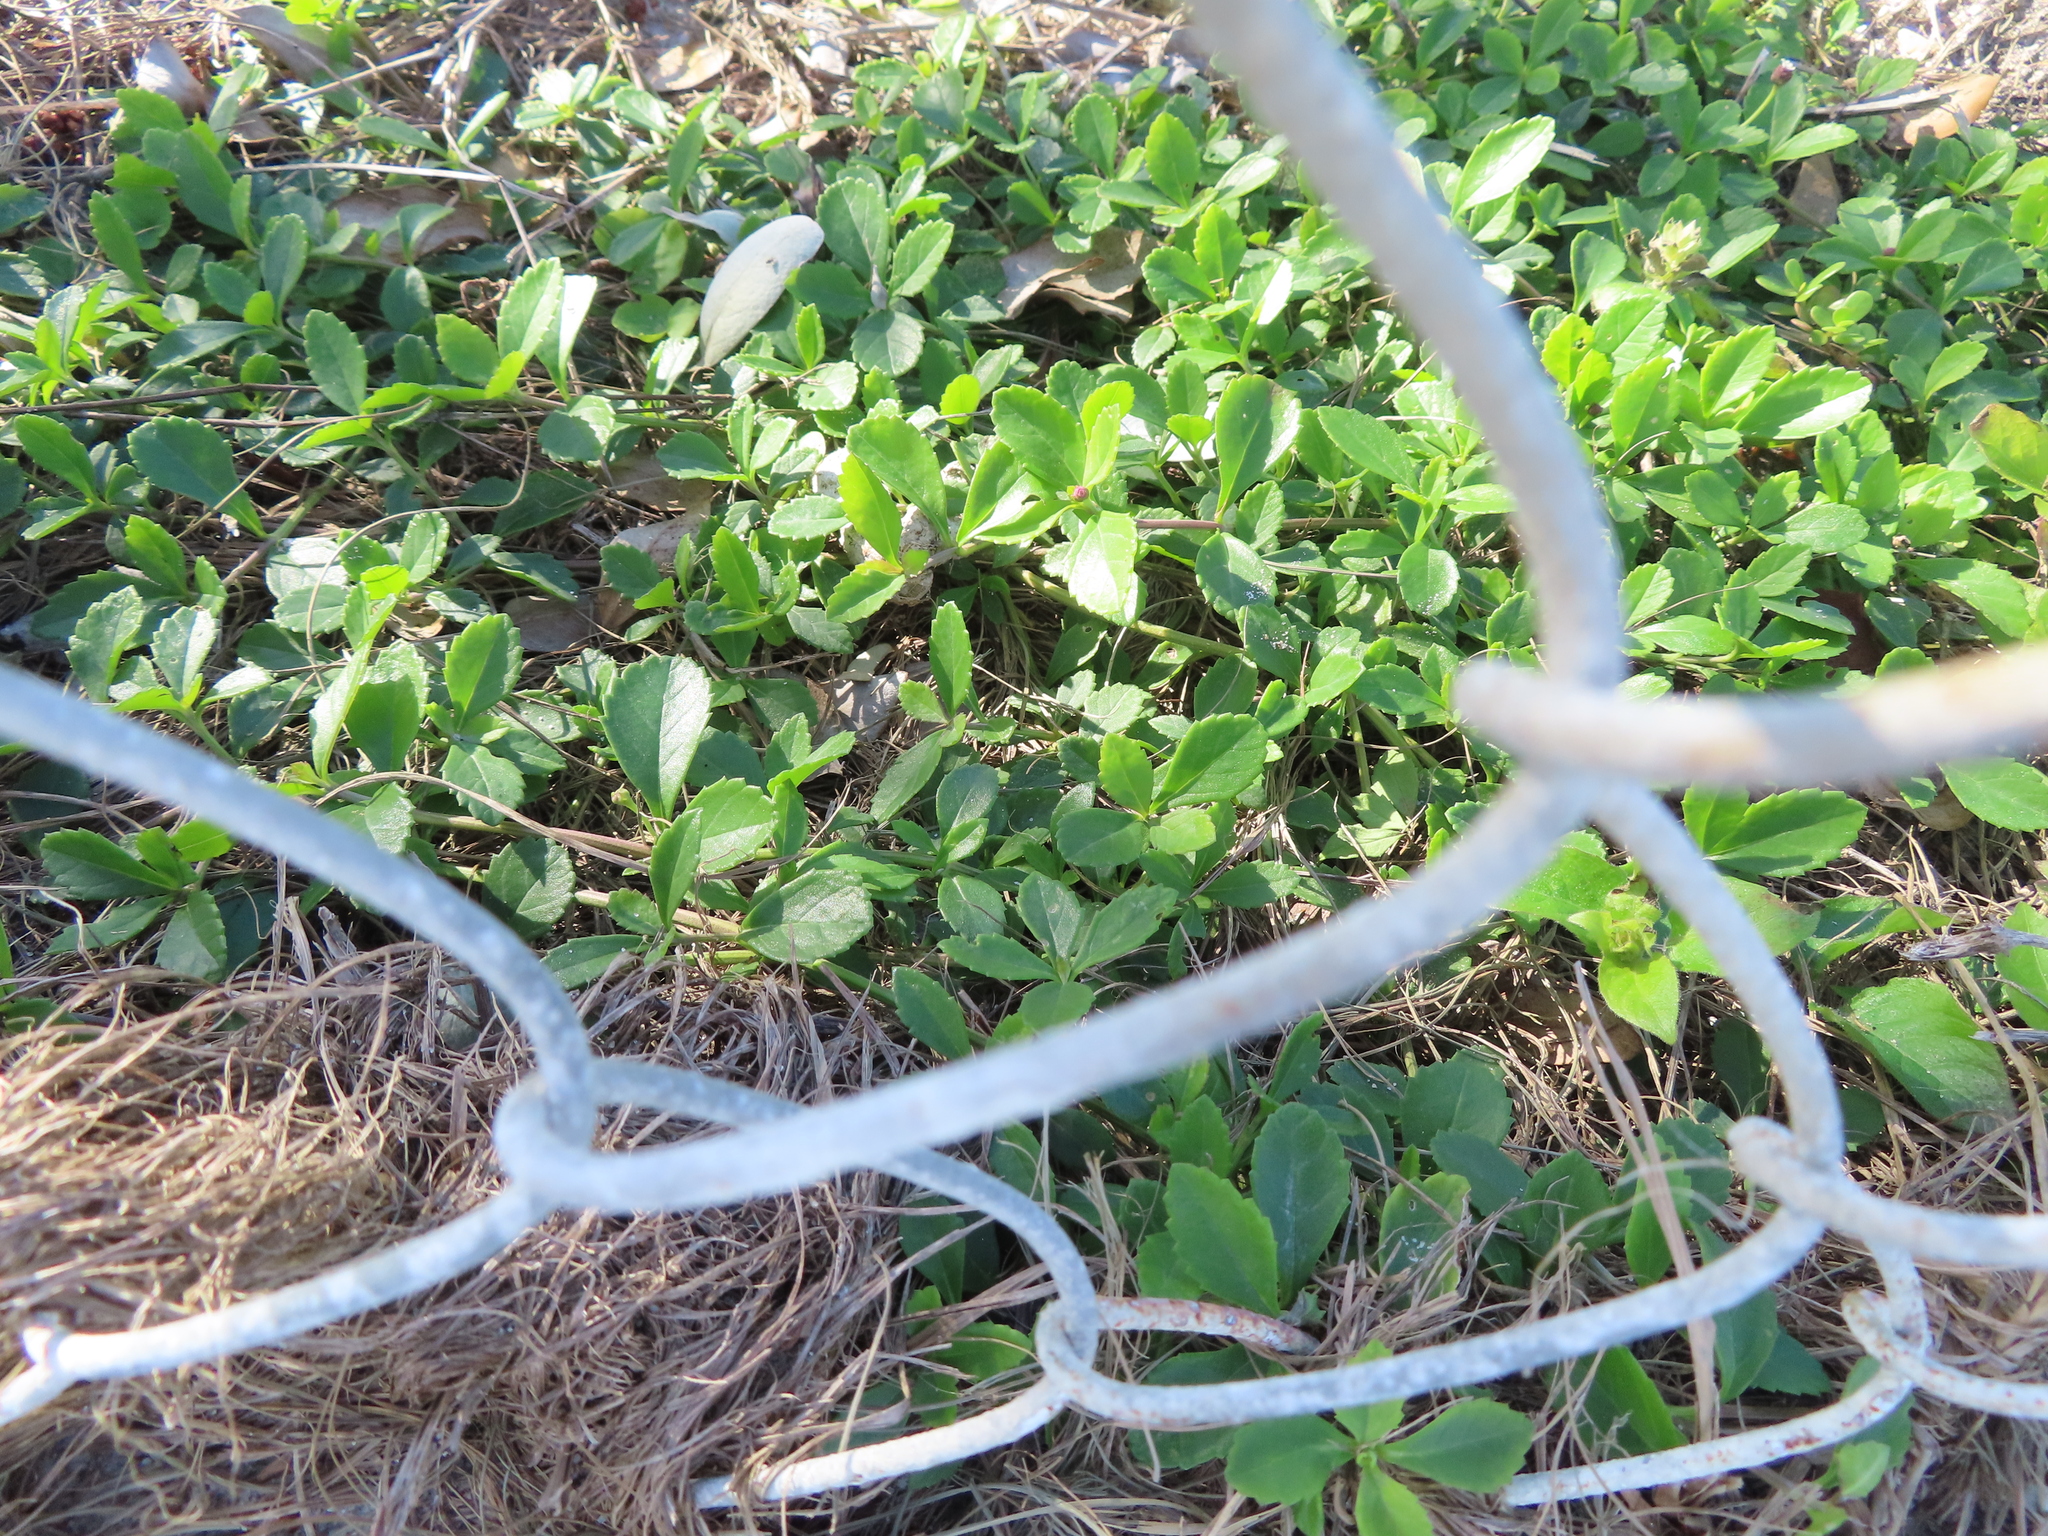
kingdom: Plantae
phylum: Tracheophyta
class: Magnoliopsida
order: Lamiales
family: Verbenaceae
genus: Phyla
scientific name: Phyla nodiflora
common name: Frogfruit
